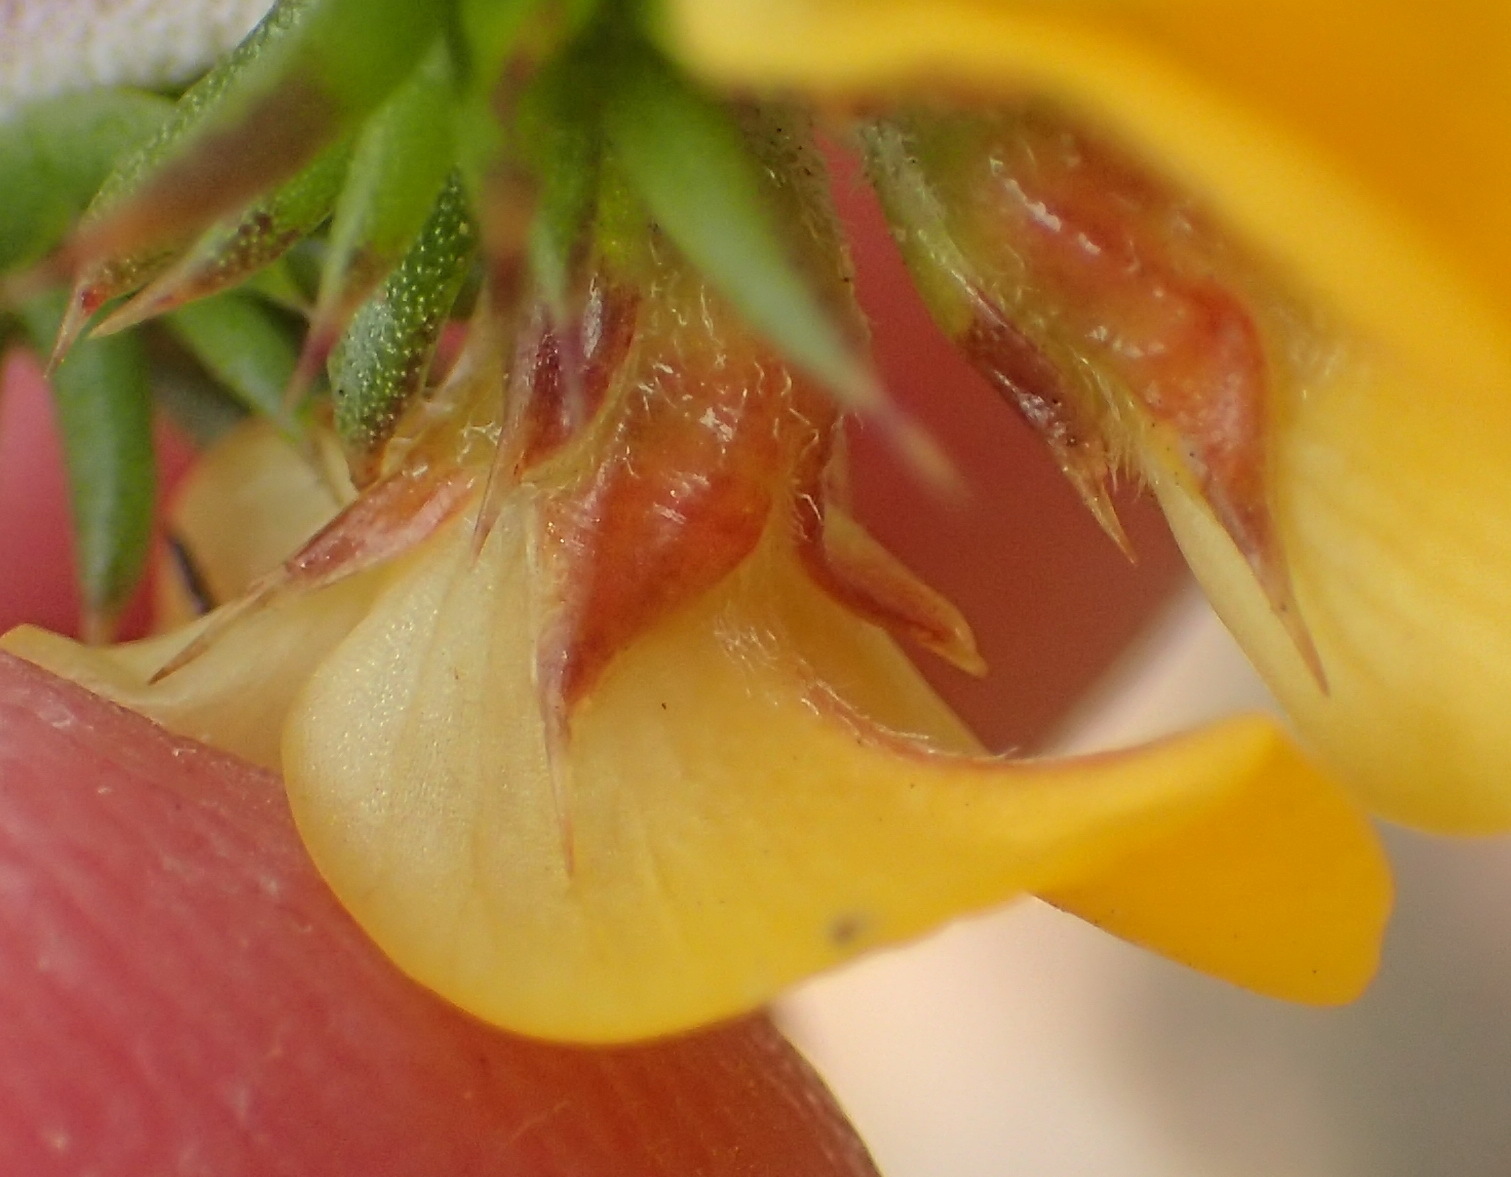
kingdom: Plantae
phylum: Tracheophyta
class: Magnoliopsida
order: Fabales
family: Fabaceae
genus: Aspalathus
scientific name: Aspalathus aciphylla
